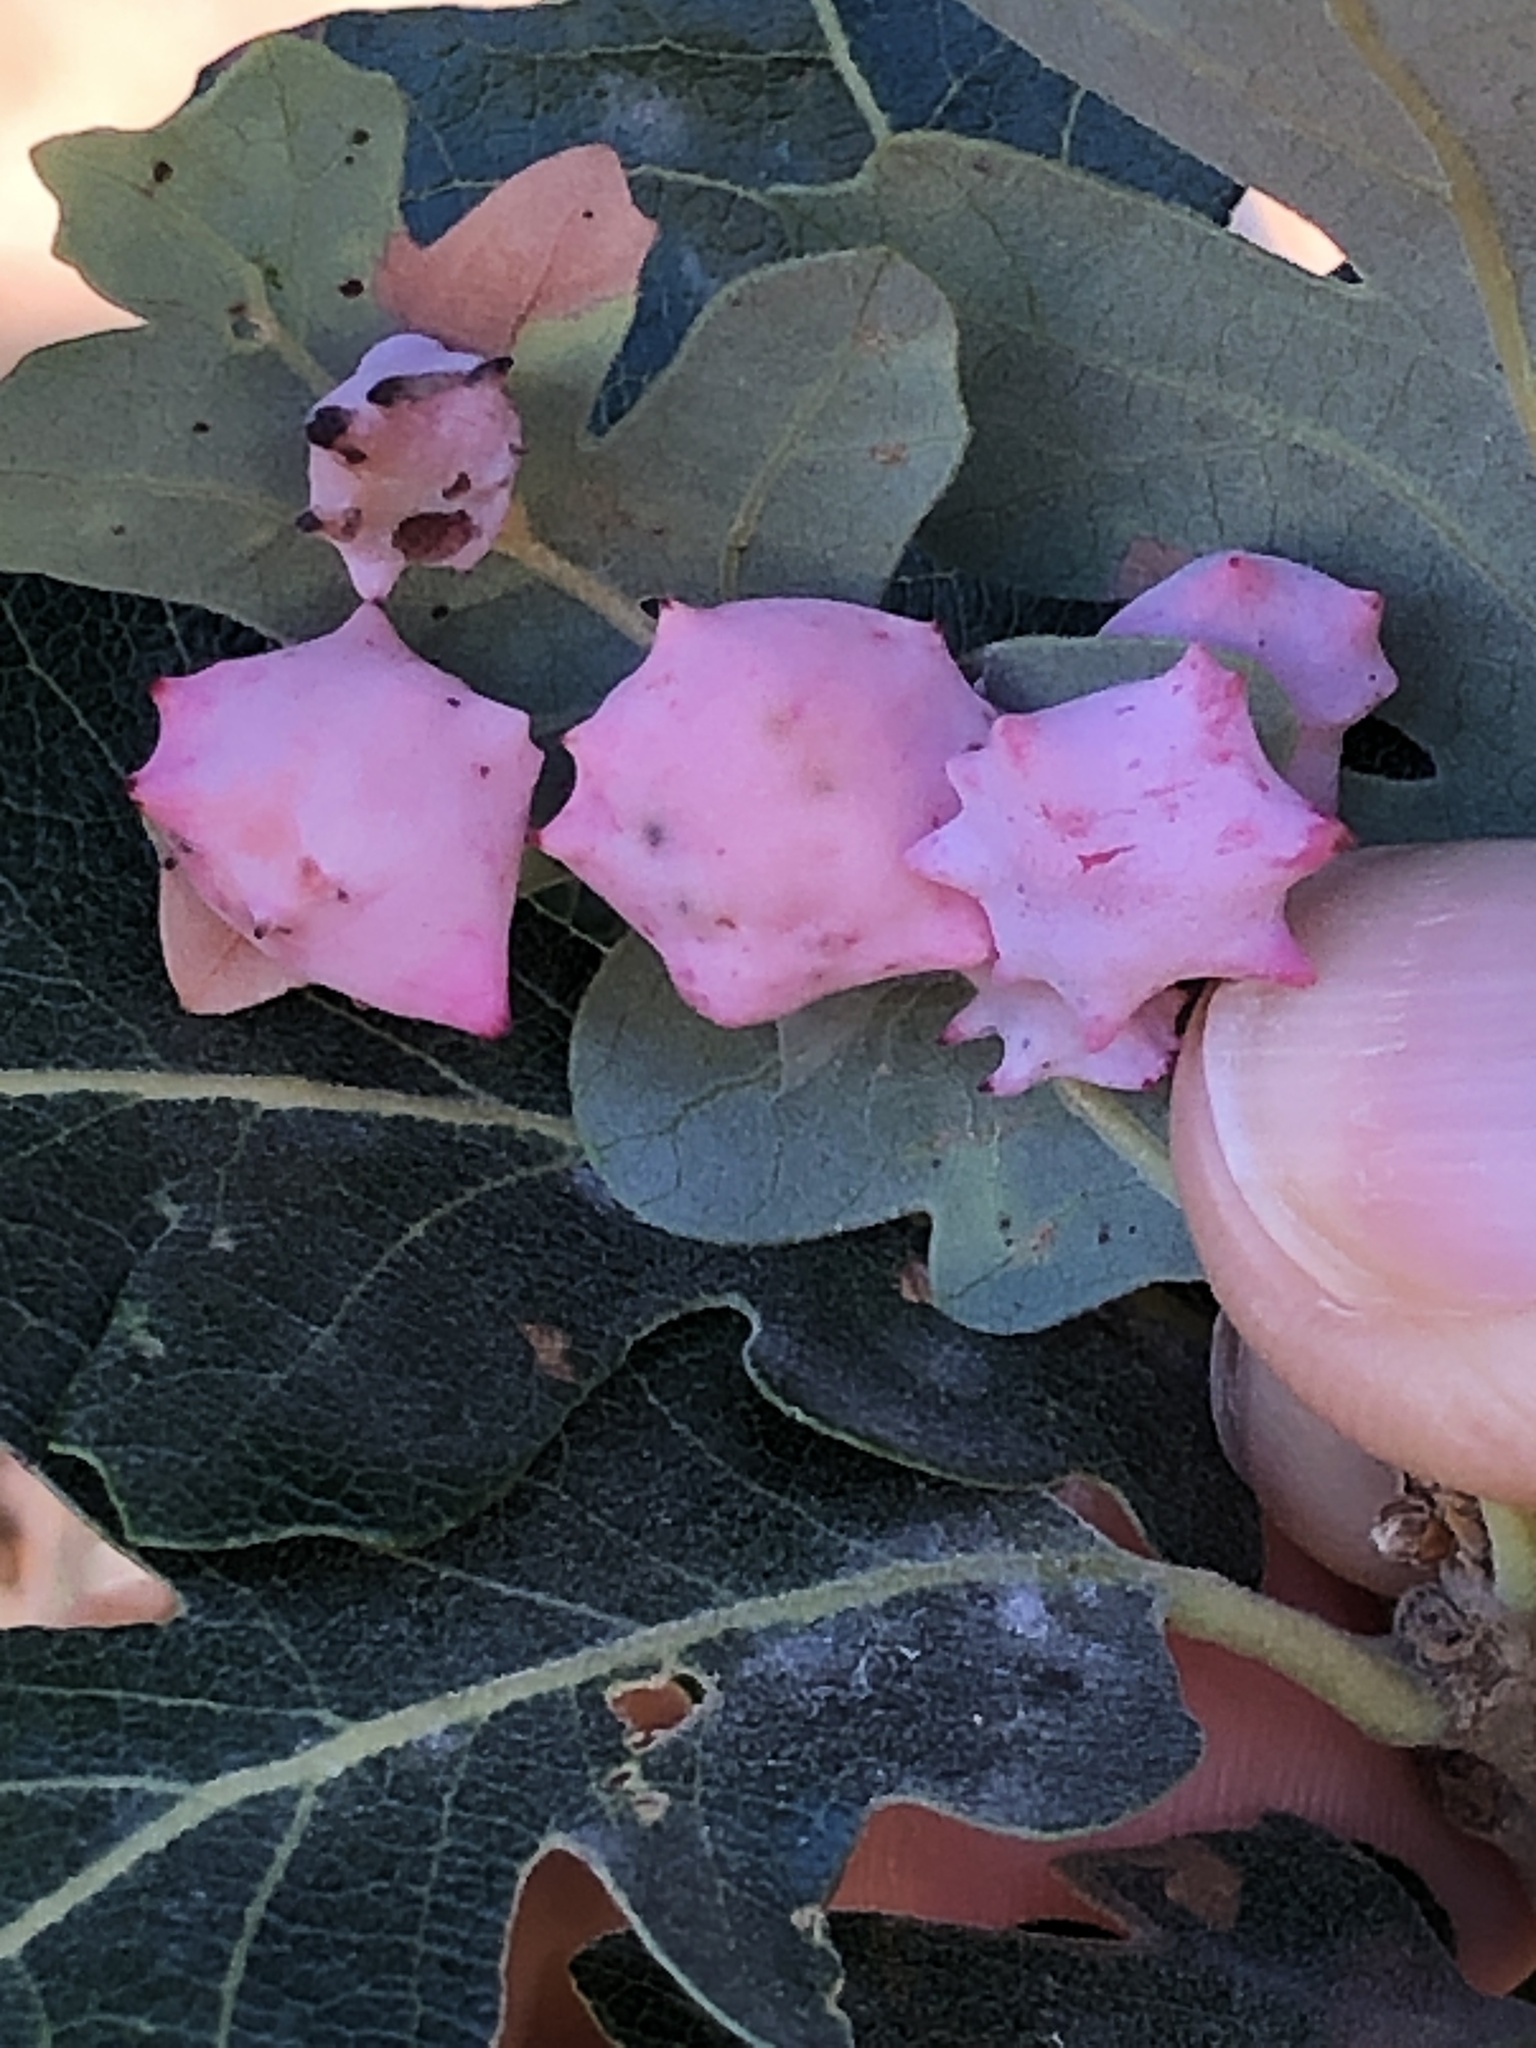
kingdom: Animalia
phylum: Arthropoda
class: Insecta
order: Hymenoptera
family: Cynipidae
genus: Cynips
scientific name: Cynips douglasi
